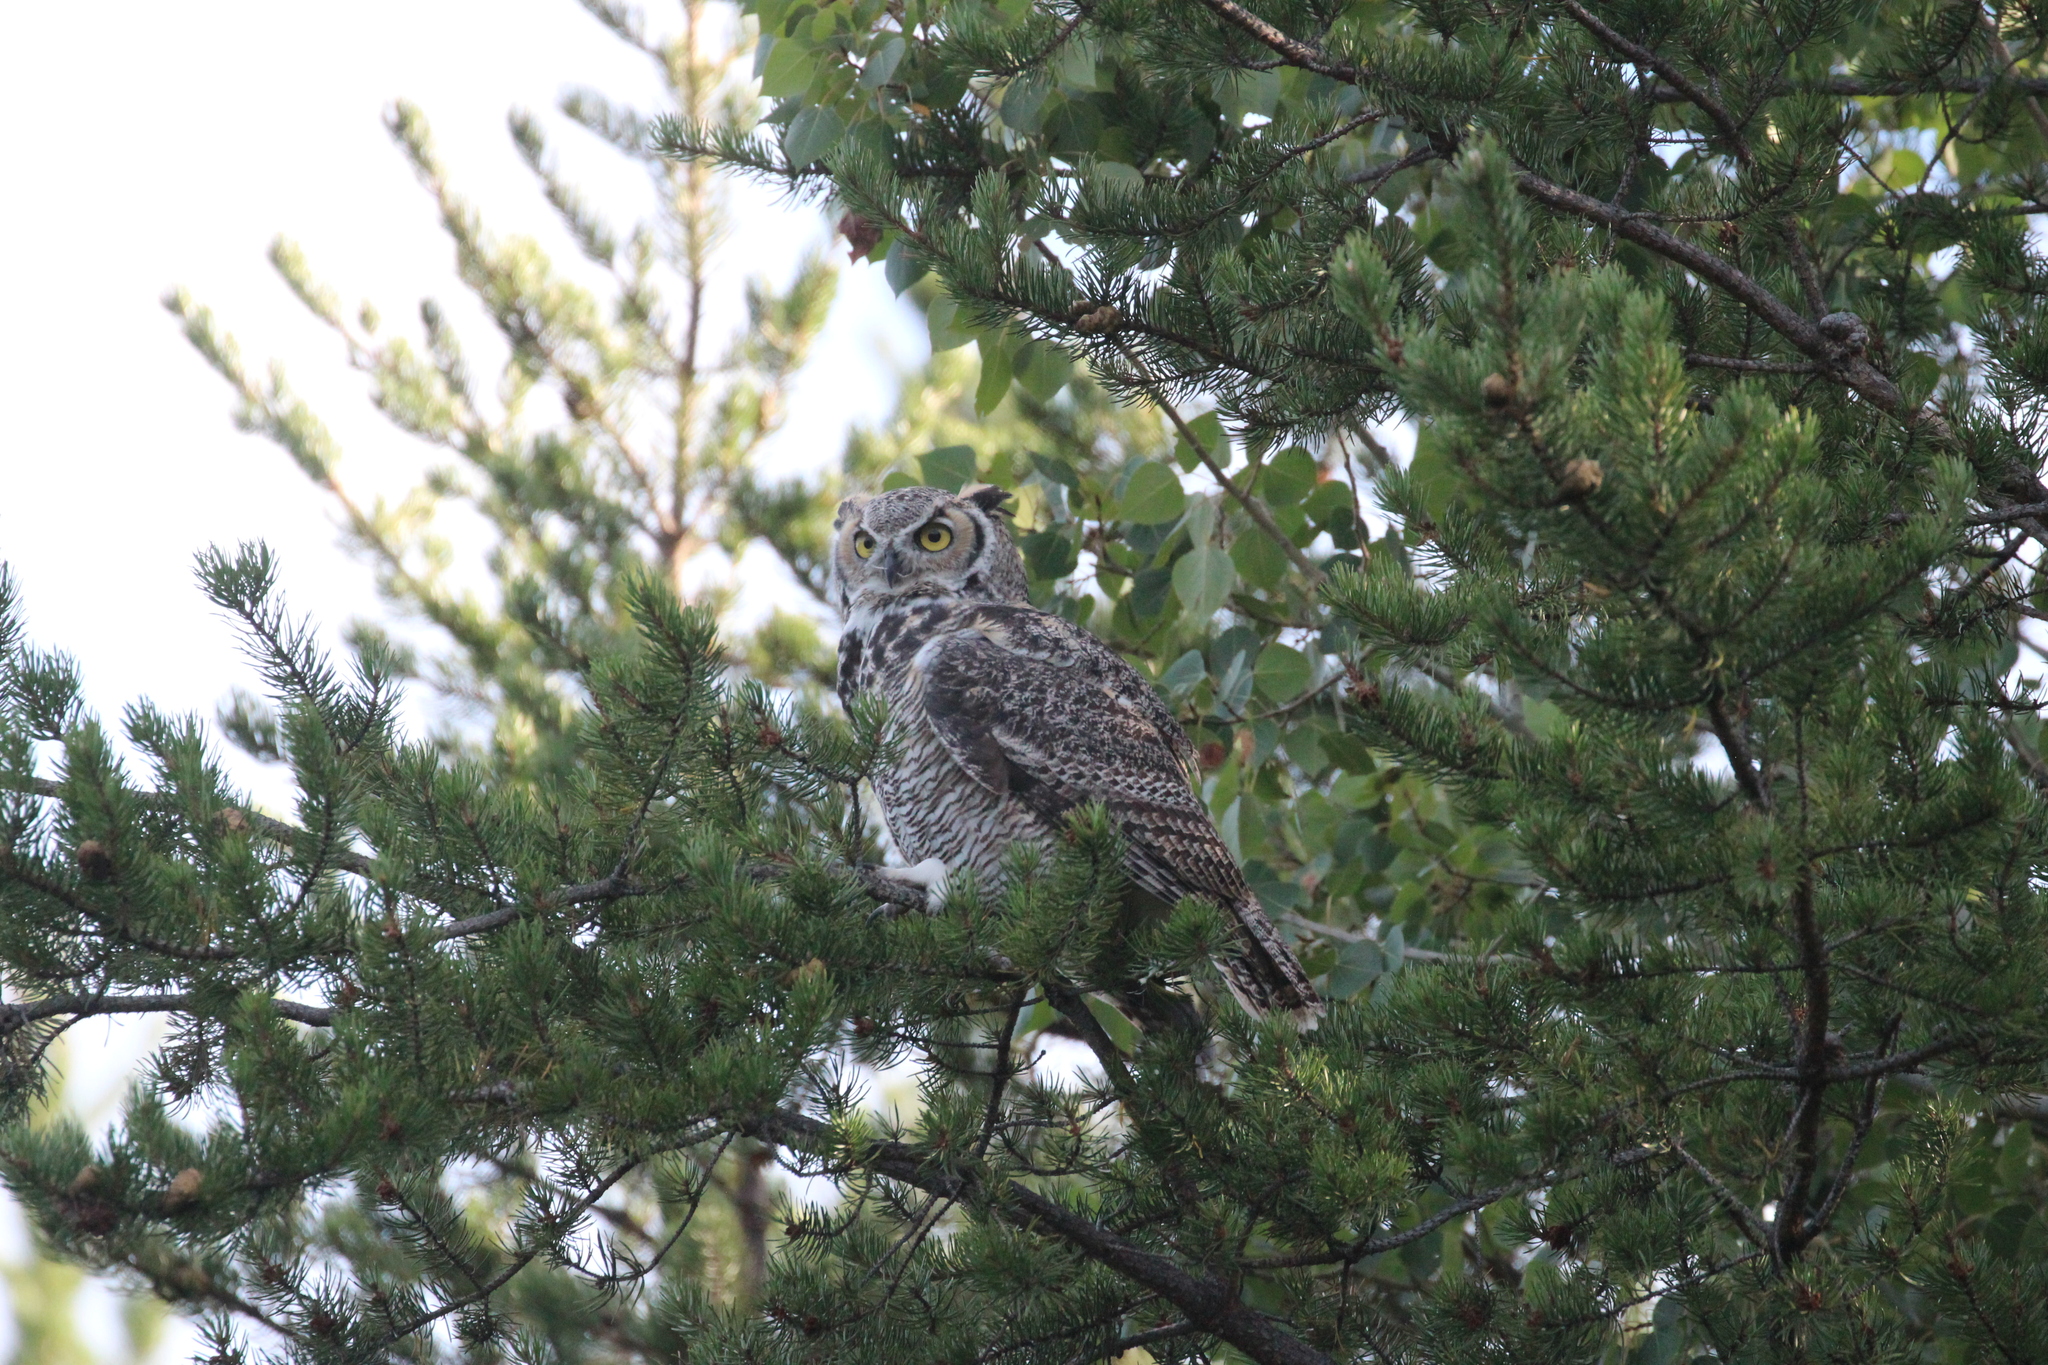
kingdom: Animalia
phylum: Chordata
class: Aves
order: Strigiformes
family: Strigidae
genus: Bubo
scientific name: Bubo virginianus
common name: Great horned owl
